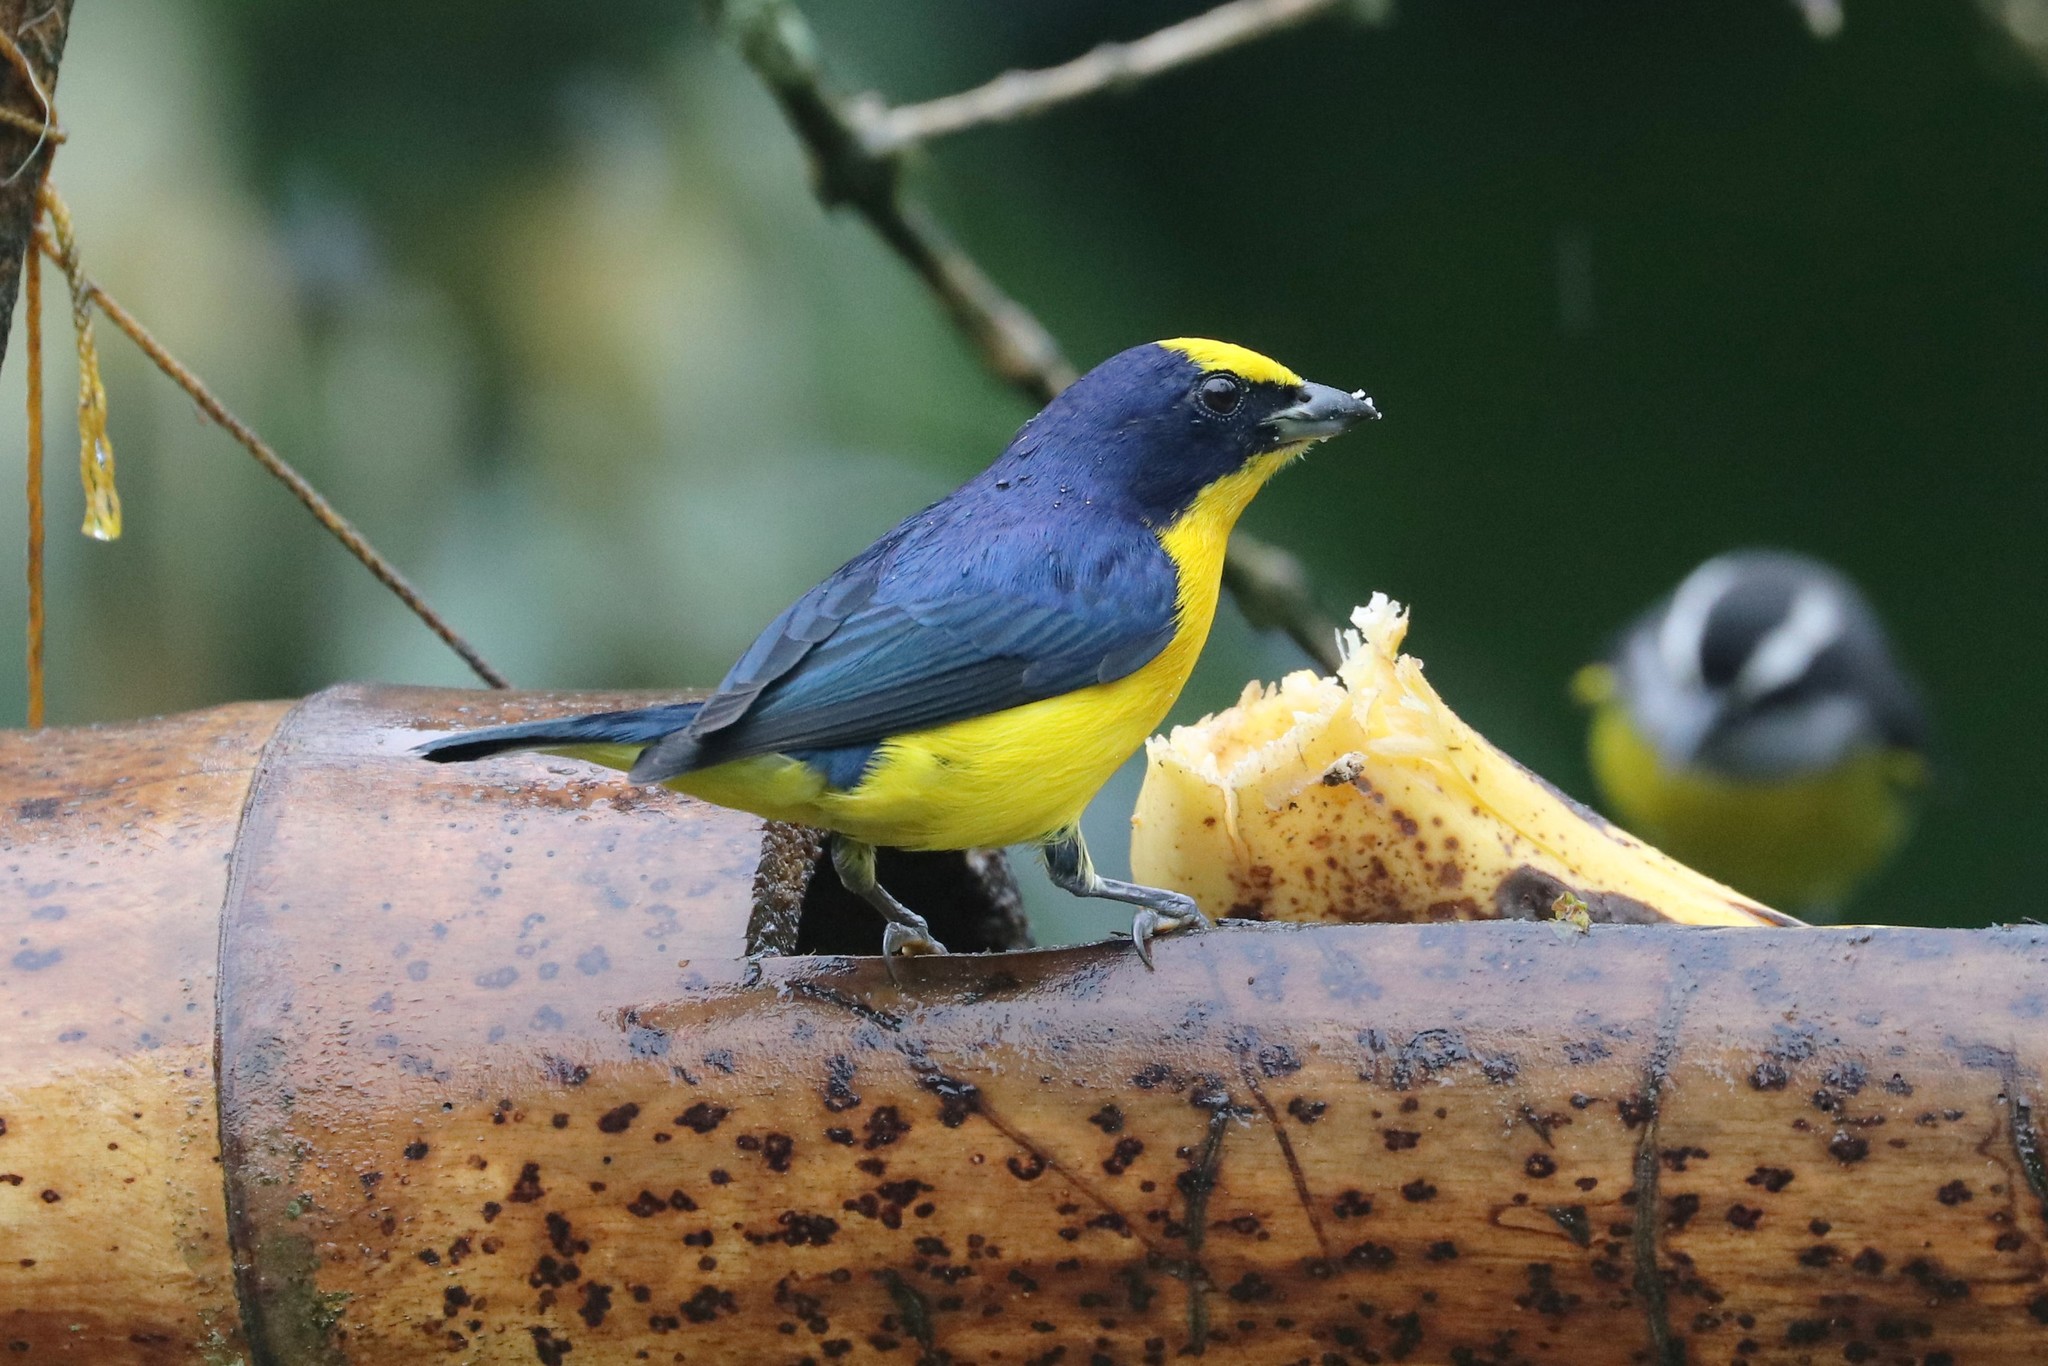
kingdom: Animalia
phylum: Chordata
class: Aves
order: Passeriformes
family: Fringillidae
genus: Euphonia
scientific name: Euphonia laniirostris
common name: Thick-billed euphonia
